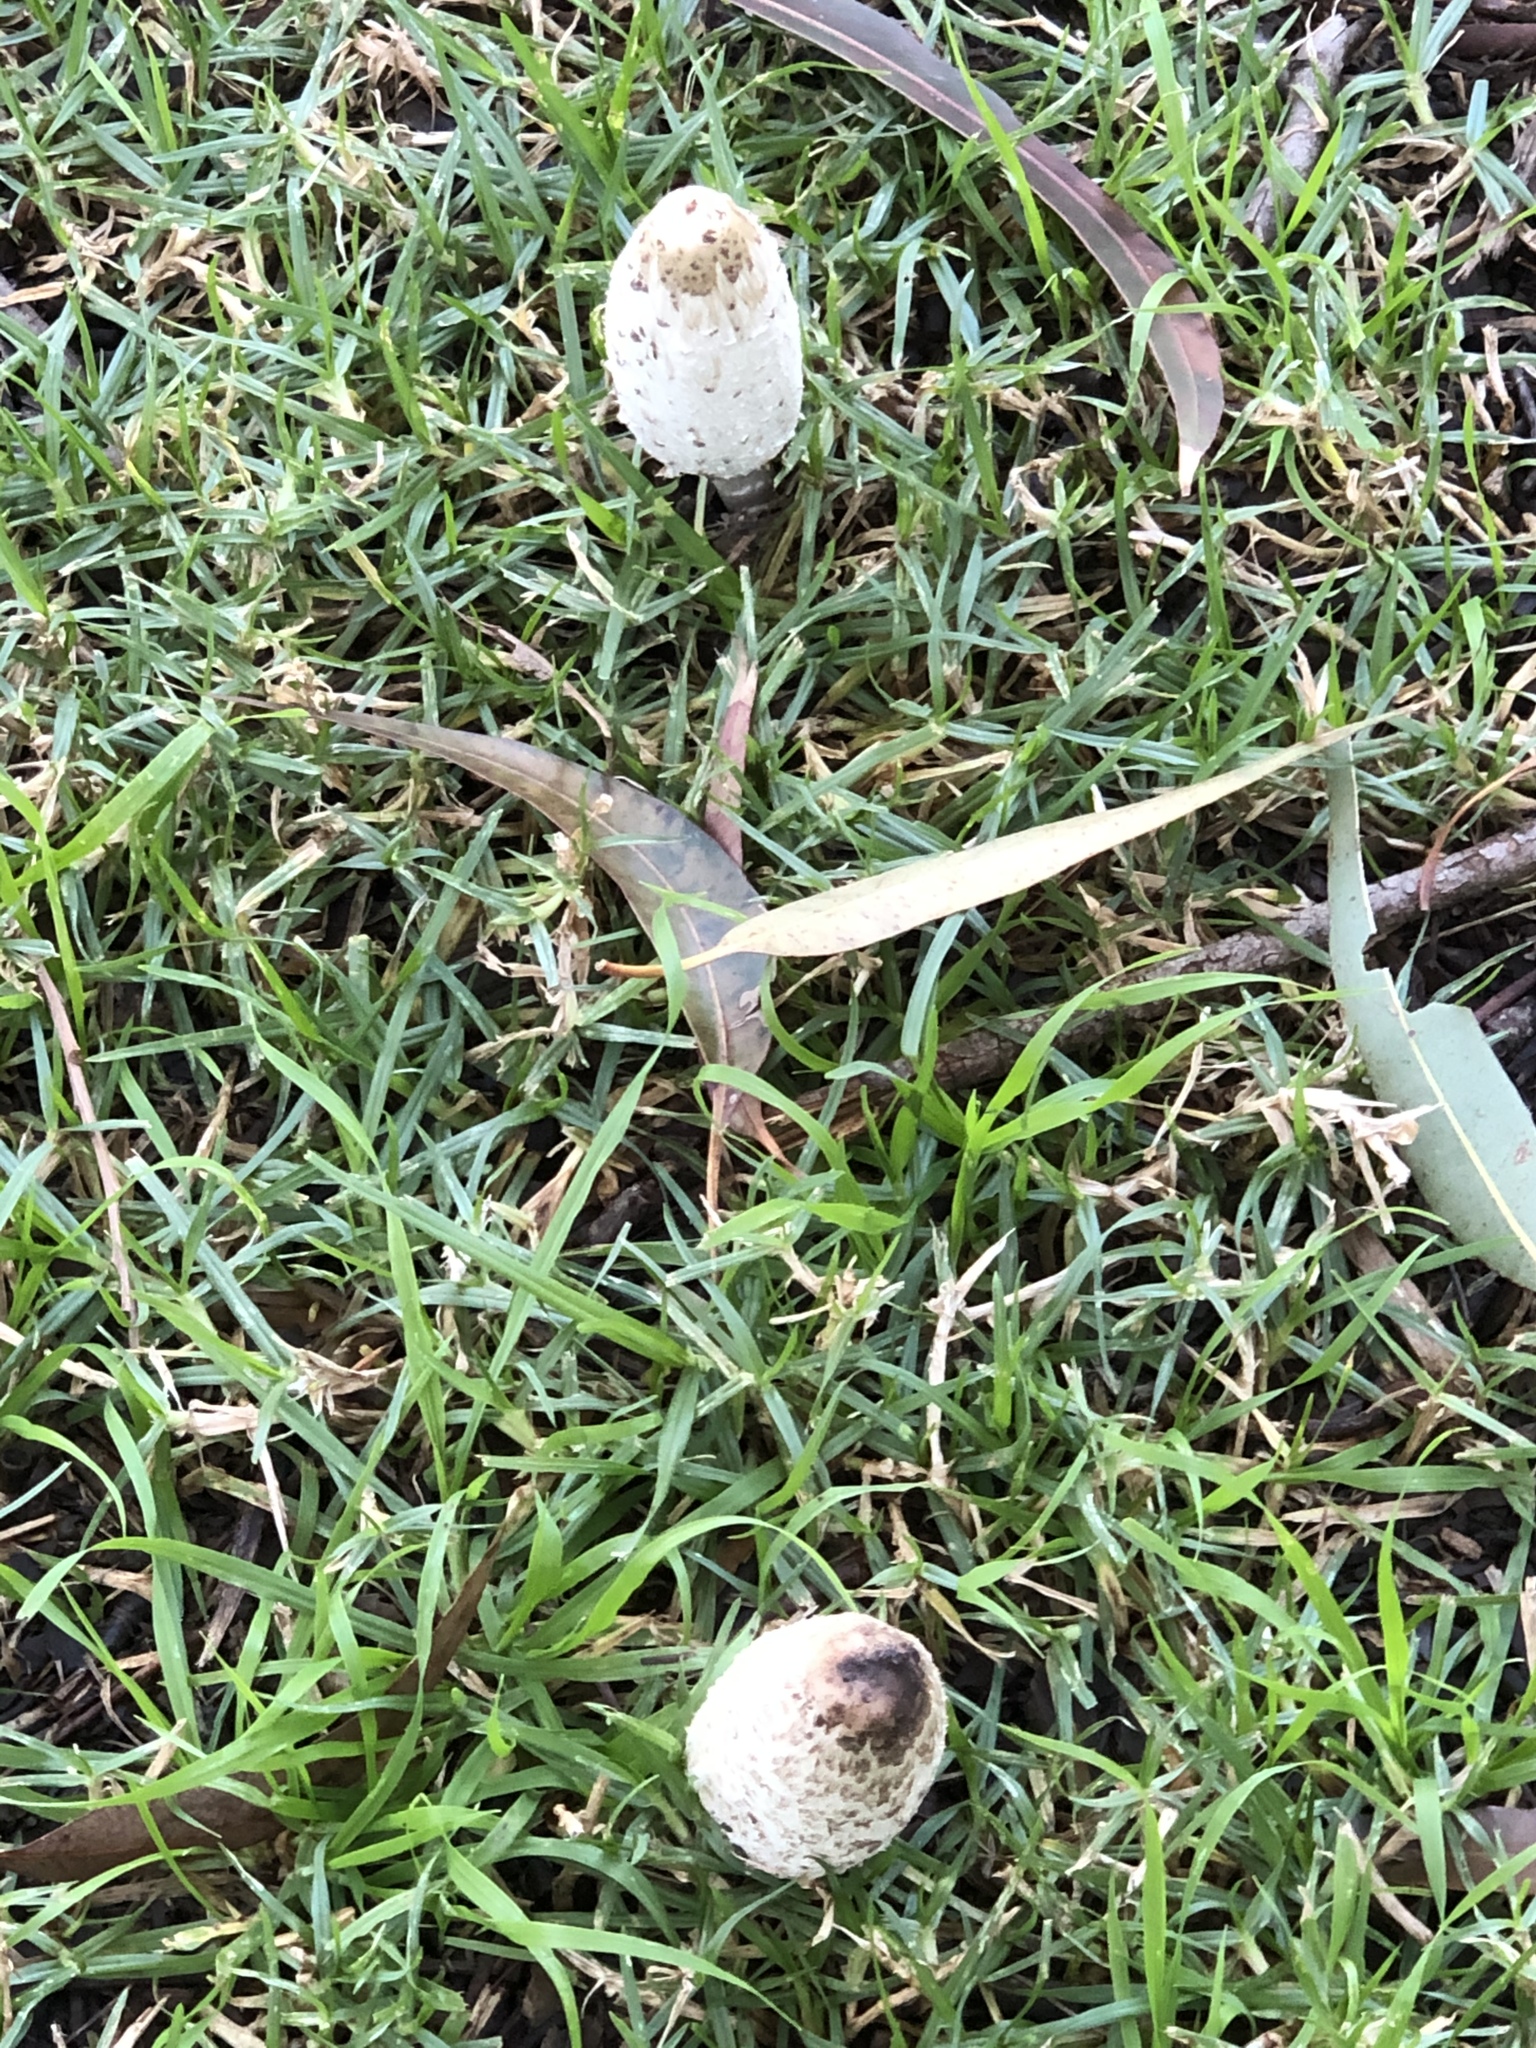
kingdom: Fungi
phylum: Basidiomycota
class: Agaricomycetes
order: Agaricales
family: Agaricaceae
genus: Coprinus
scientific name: Coprinus comatus
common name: Lawyer's wig
